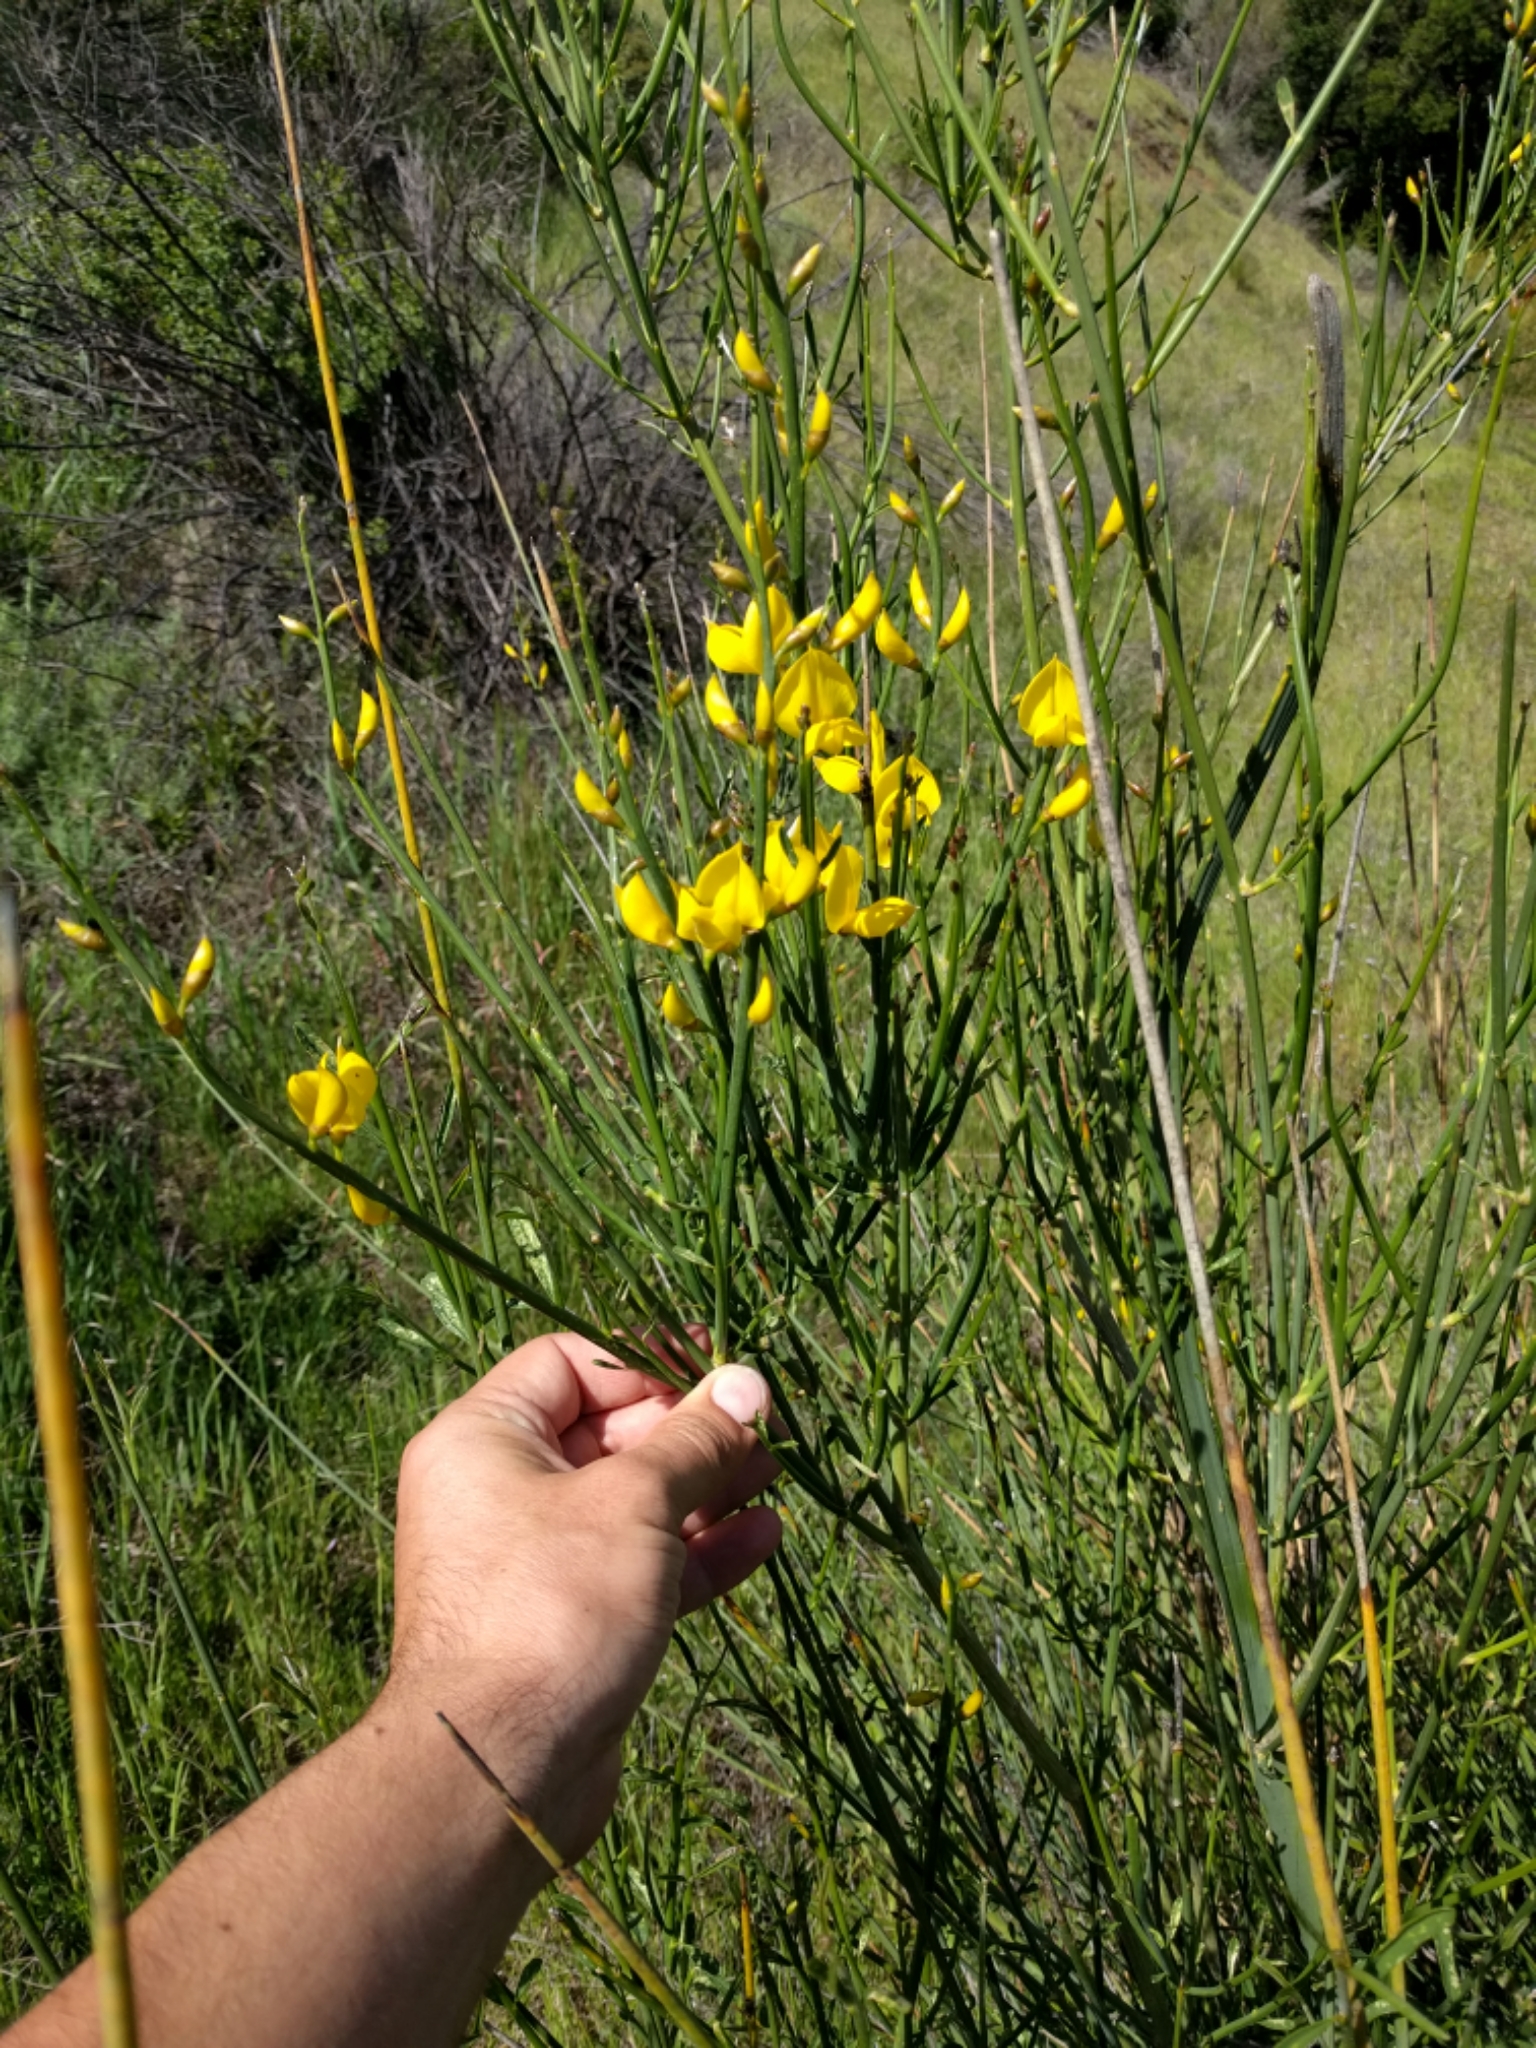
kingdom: Plantae
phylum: Tracheophyta
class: Magnoliopsida
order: Fabales
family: Fabaceae
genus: Spartium
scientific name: Spartium junceum
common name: Spanish broom
